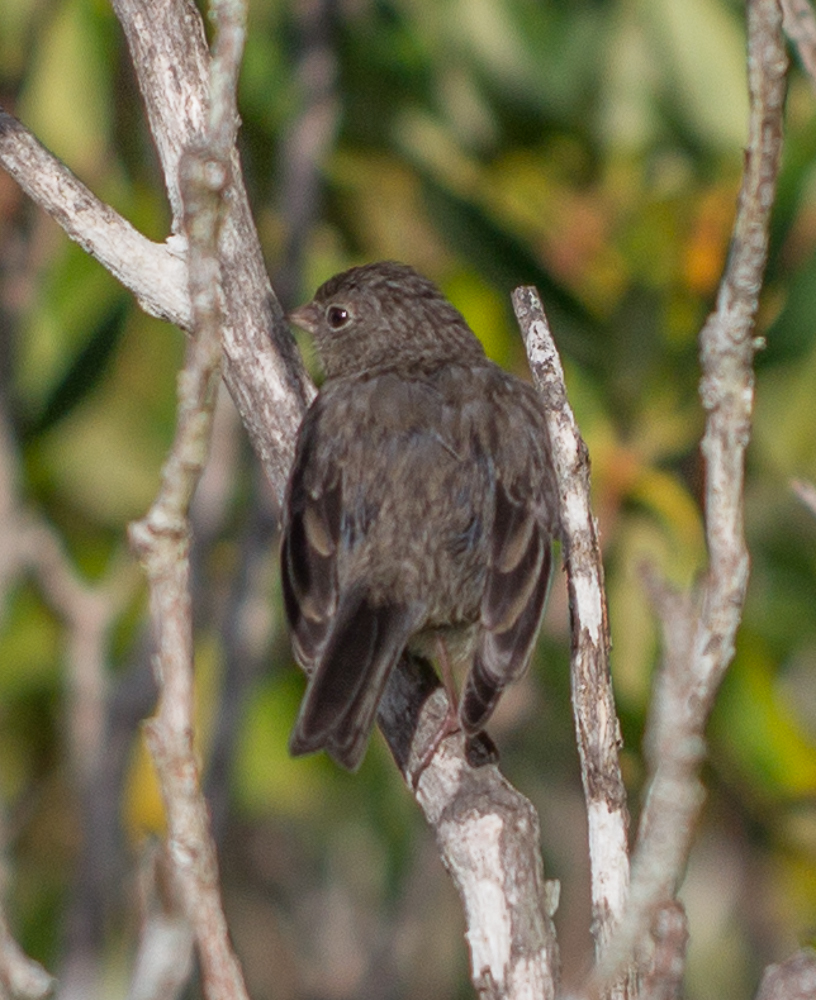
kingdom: Animalia
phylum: Chordata
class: Aves
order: Passeriformes
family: Passerellidae
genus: Junco
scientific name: Junco hyemalis
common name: Dark-eyed junco
